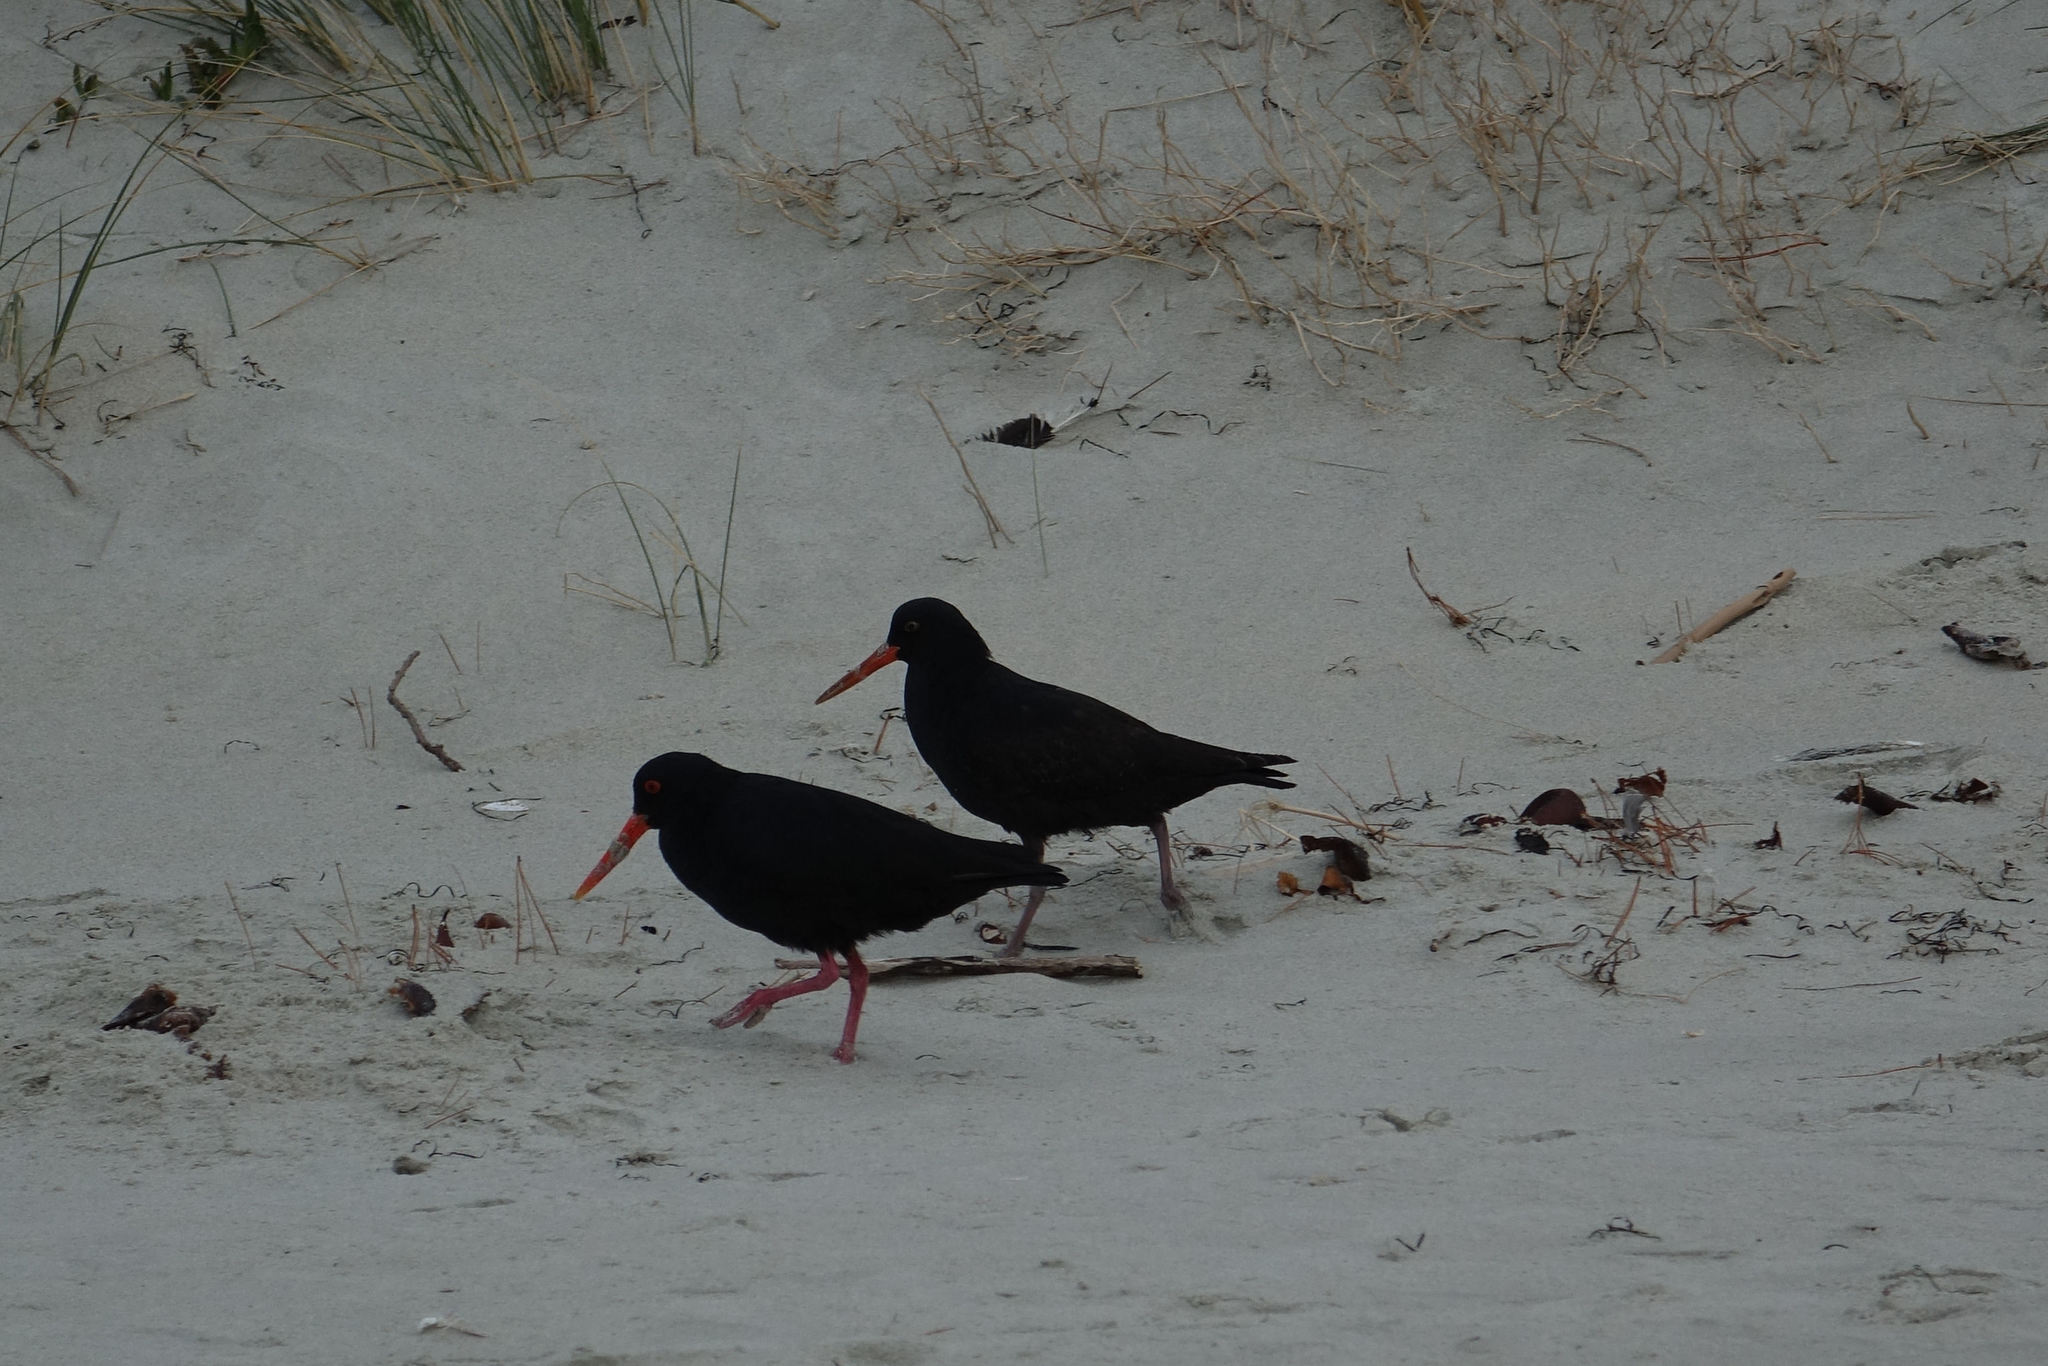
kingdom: Animalia
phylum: Chordata
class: Aves
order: Charadriiformes
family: Haematopodidae
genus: Haematopus
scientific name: Haematopus unicolor
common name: Variable oystercatcher
